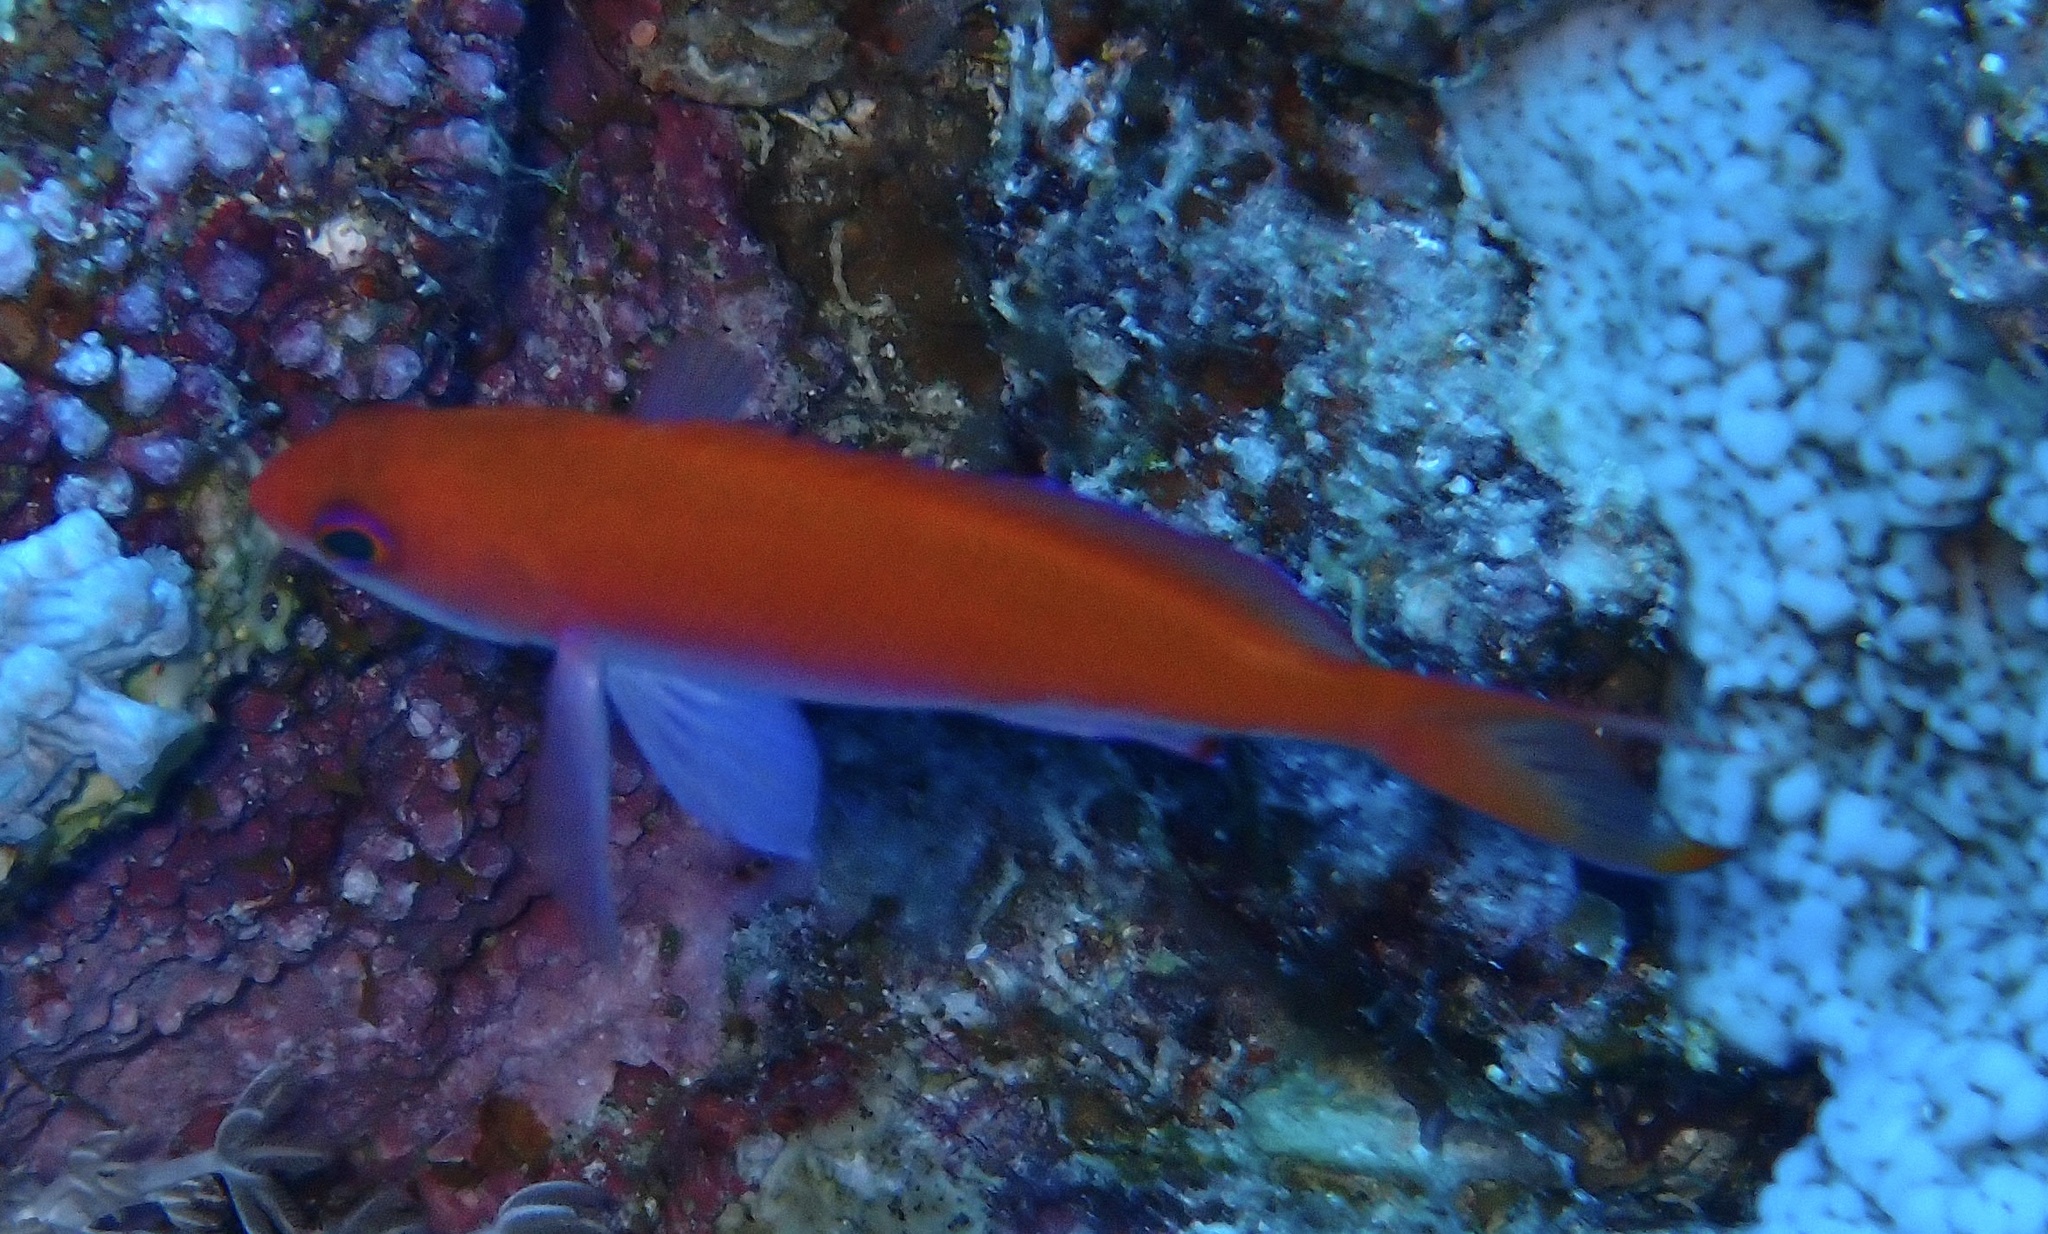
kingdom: Animalia
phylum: Chordata
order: Perciformes
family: Serranidae
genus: Pseudanthias
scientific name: Pseudanthias taeniatus
